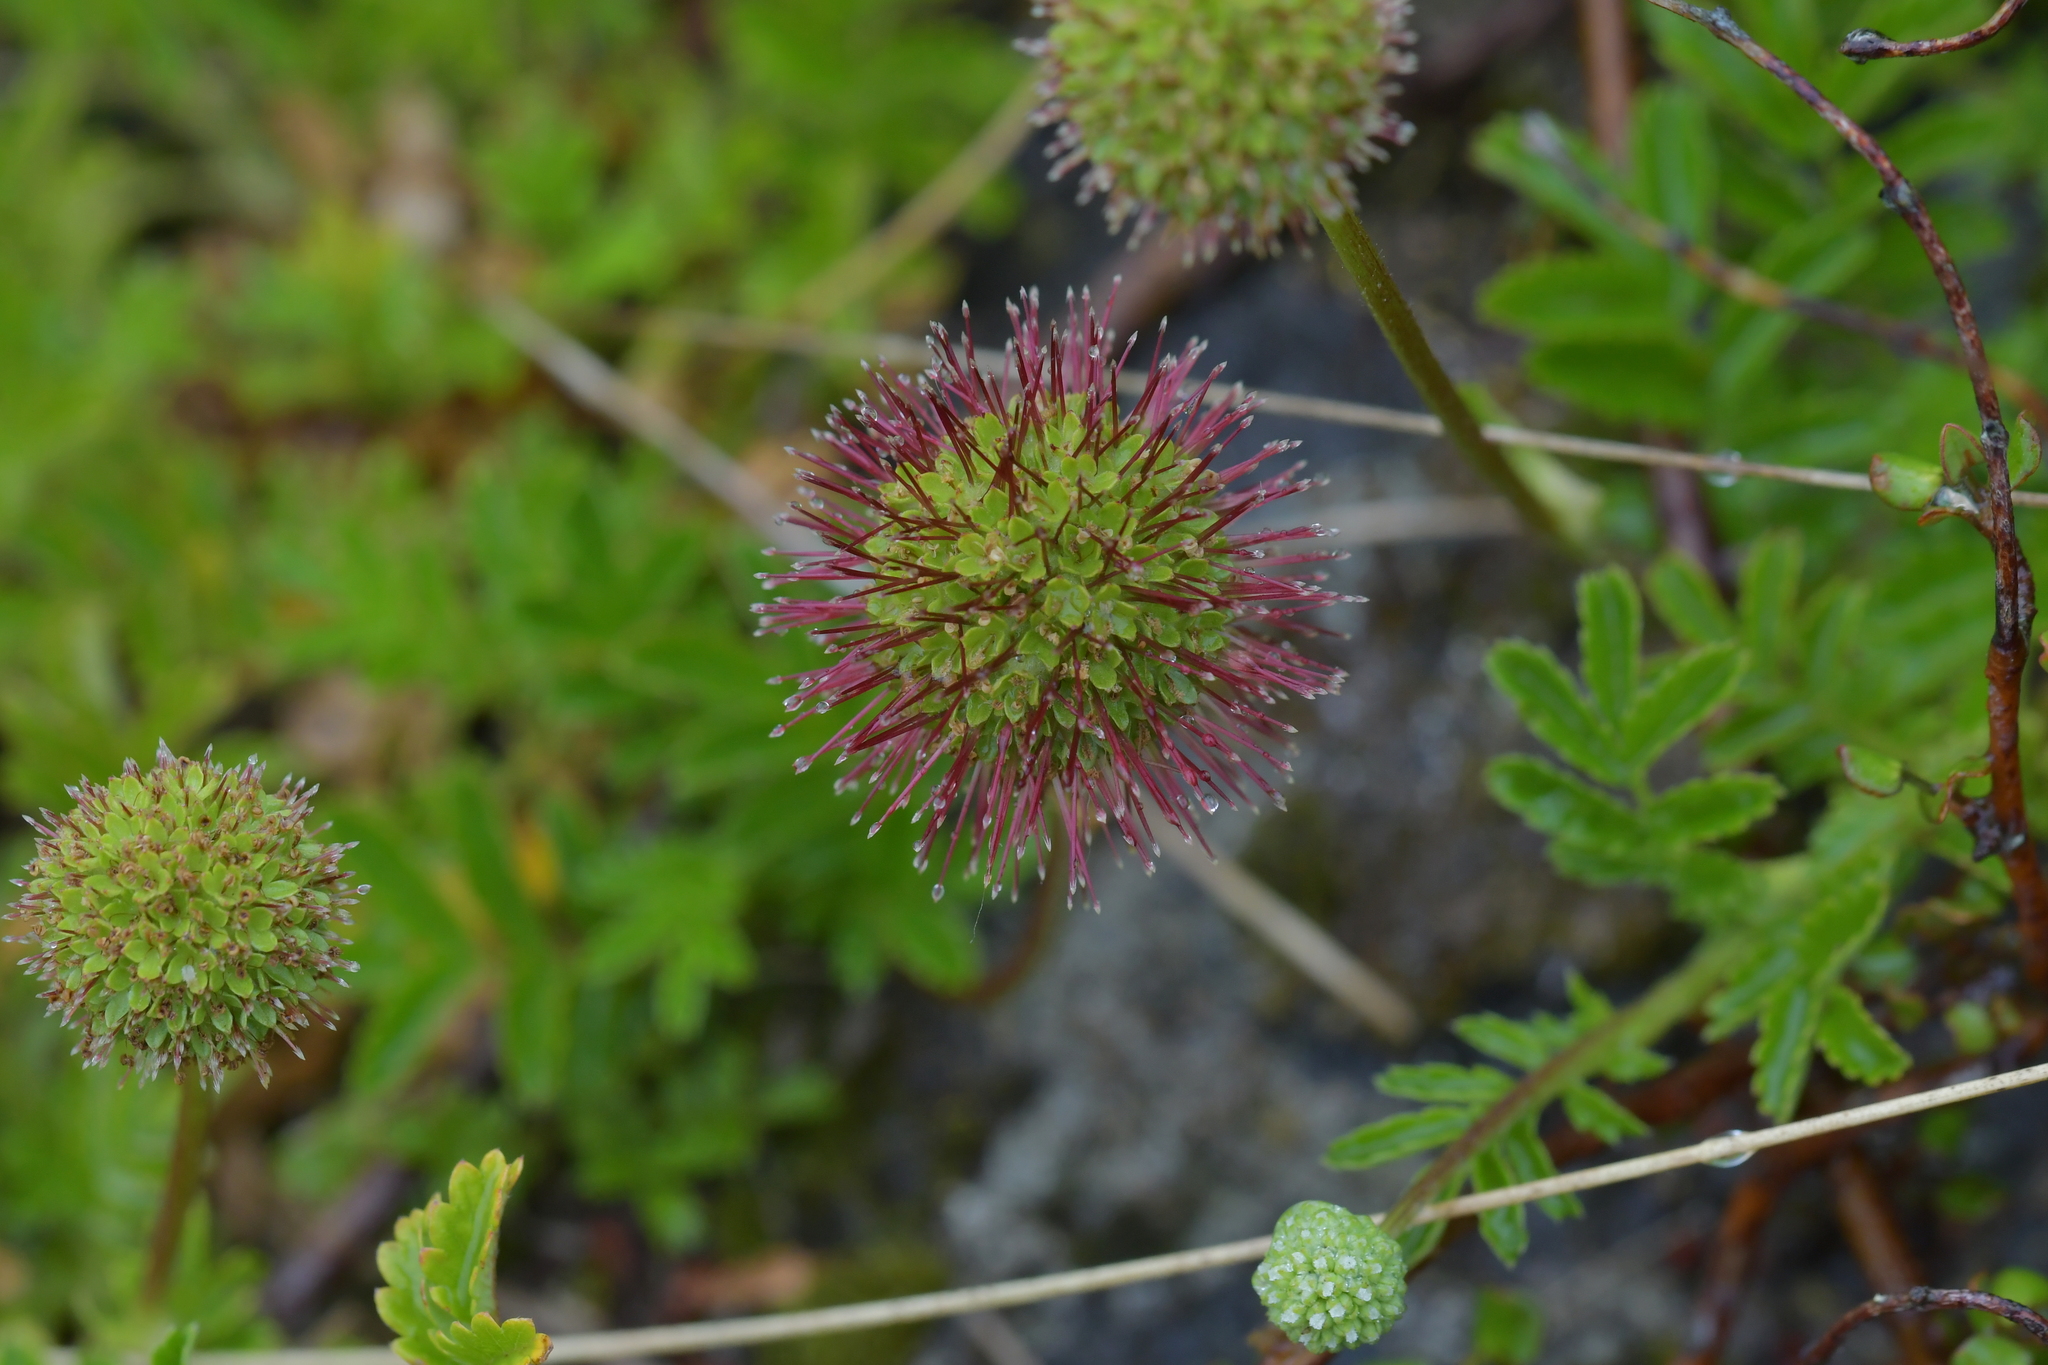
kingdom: Plantae
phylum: Tracheophyta
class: Magnoliopsida
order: Rosales
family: Rosaceae
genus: Acaena
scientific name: Acaena novae-zelandiae
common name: Pirri-pirri-bur
